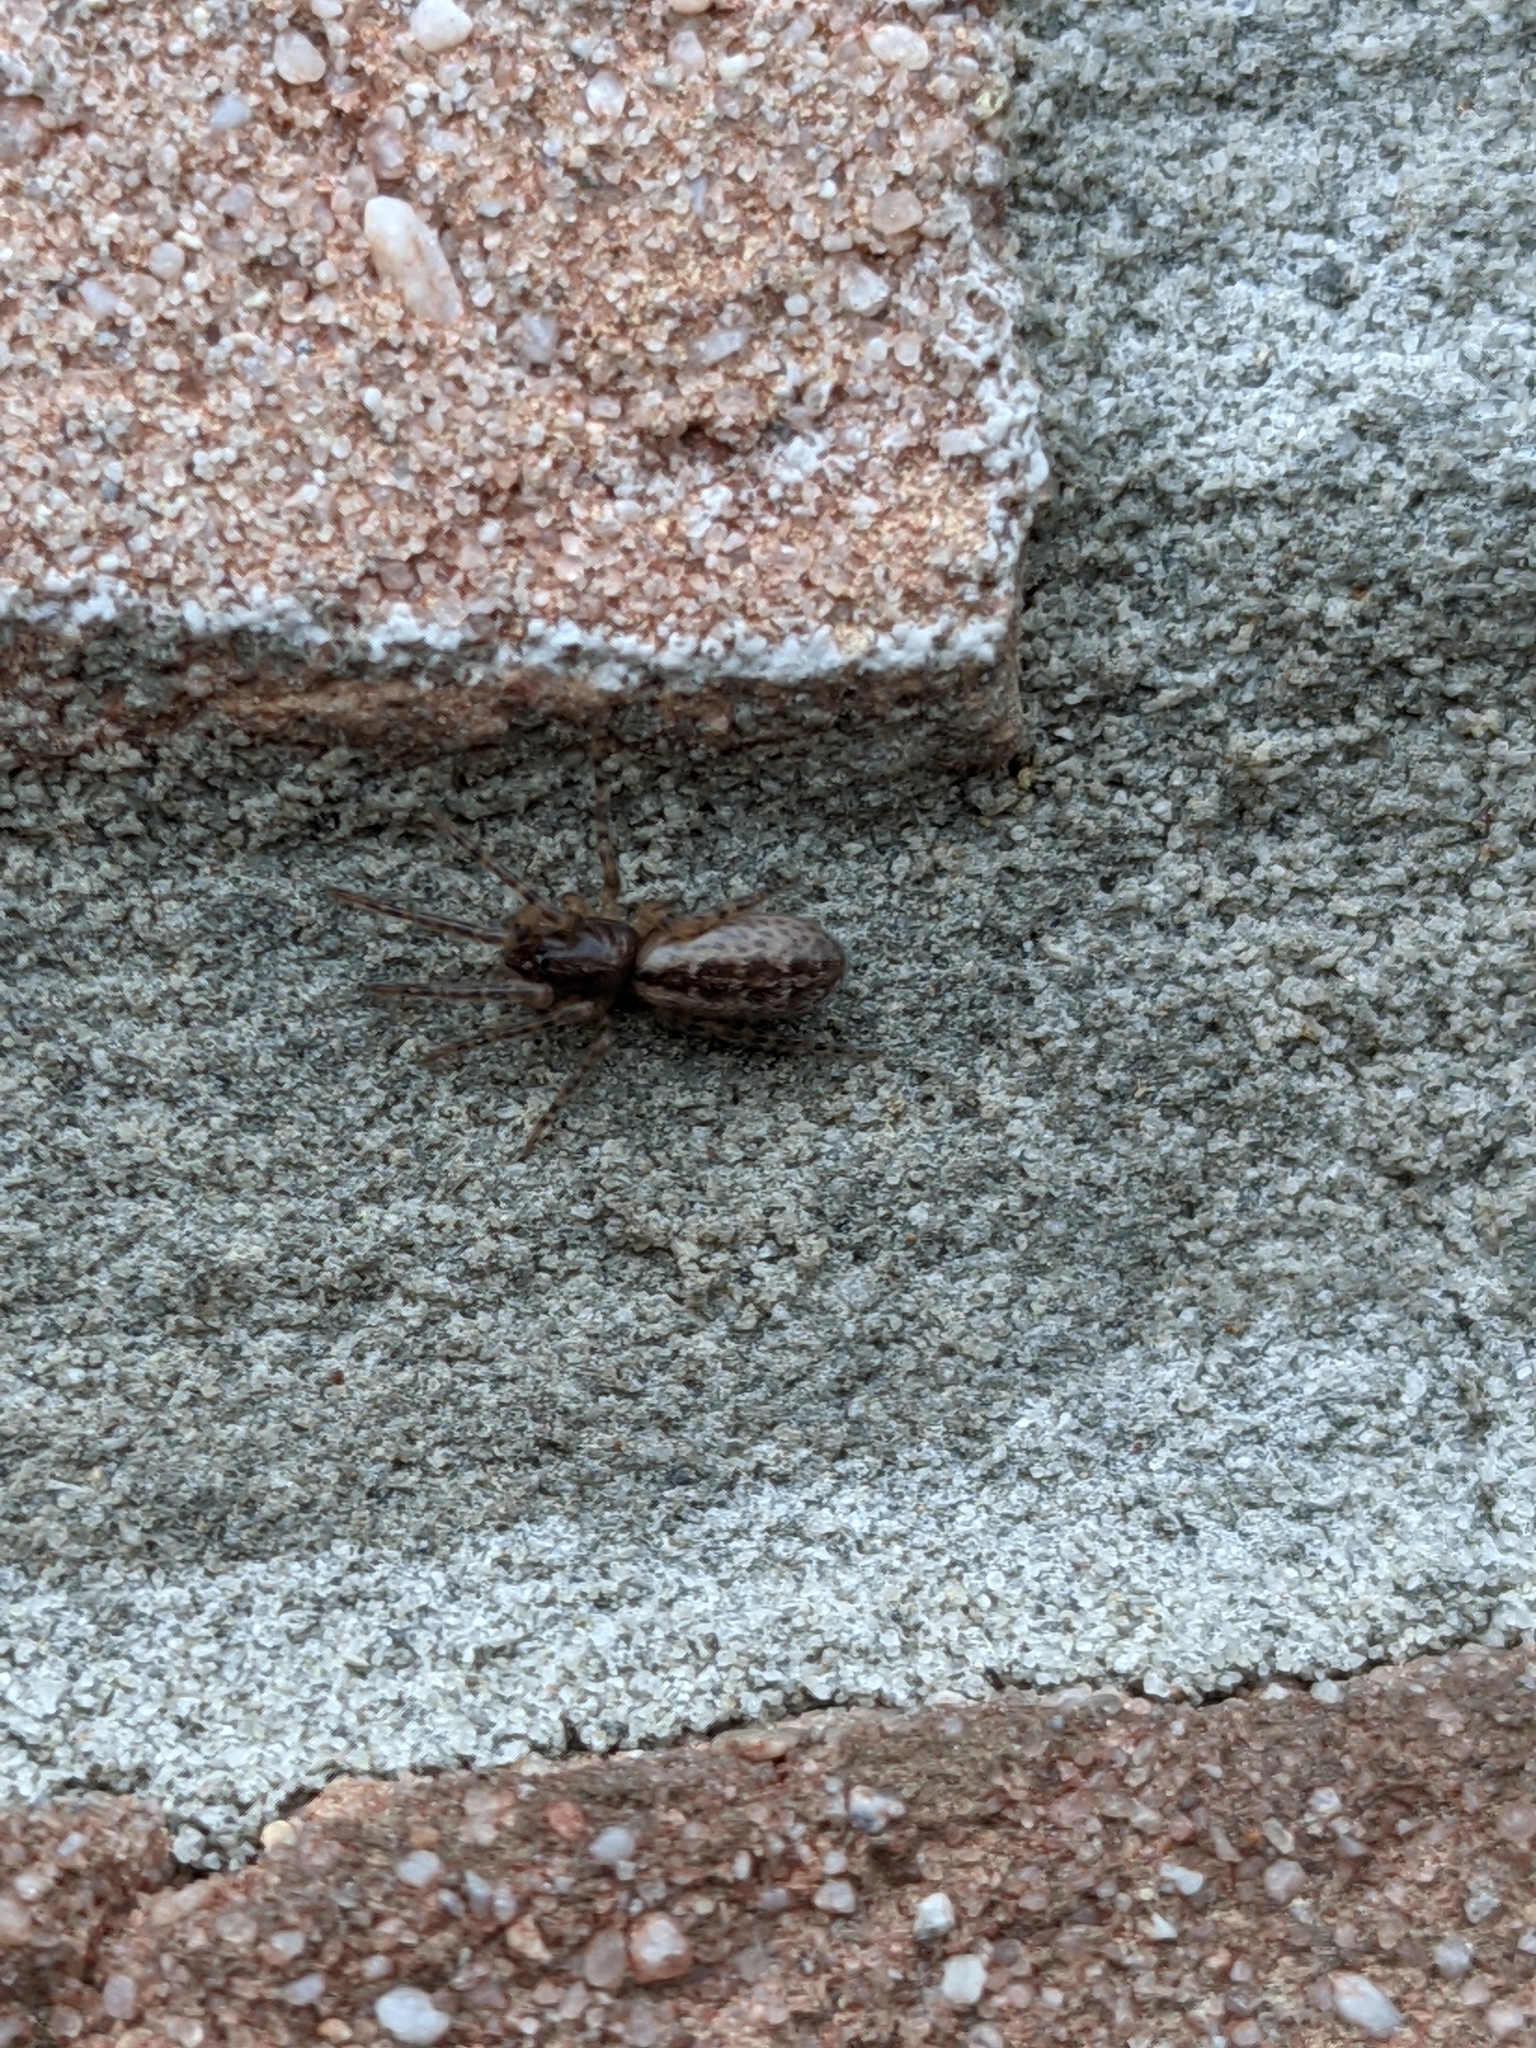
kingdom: Animalia
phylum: Arthropoda
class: Arachnida
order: Araneae
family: Segestriidae
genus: Segestria
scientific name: Segestria bavarica
